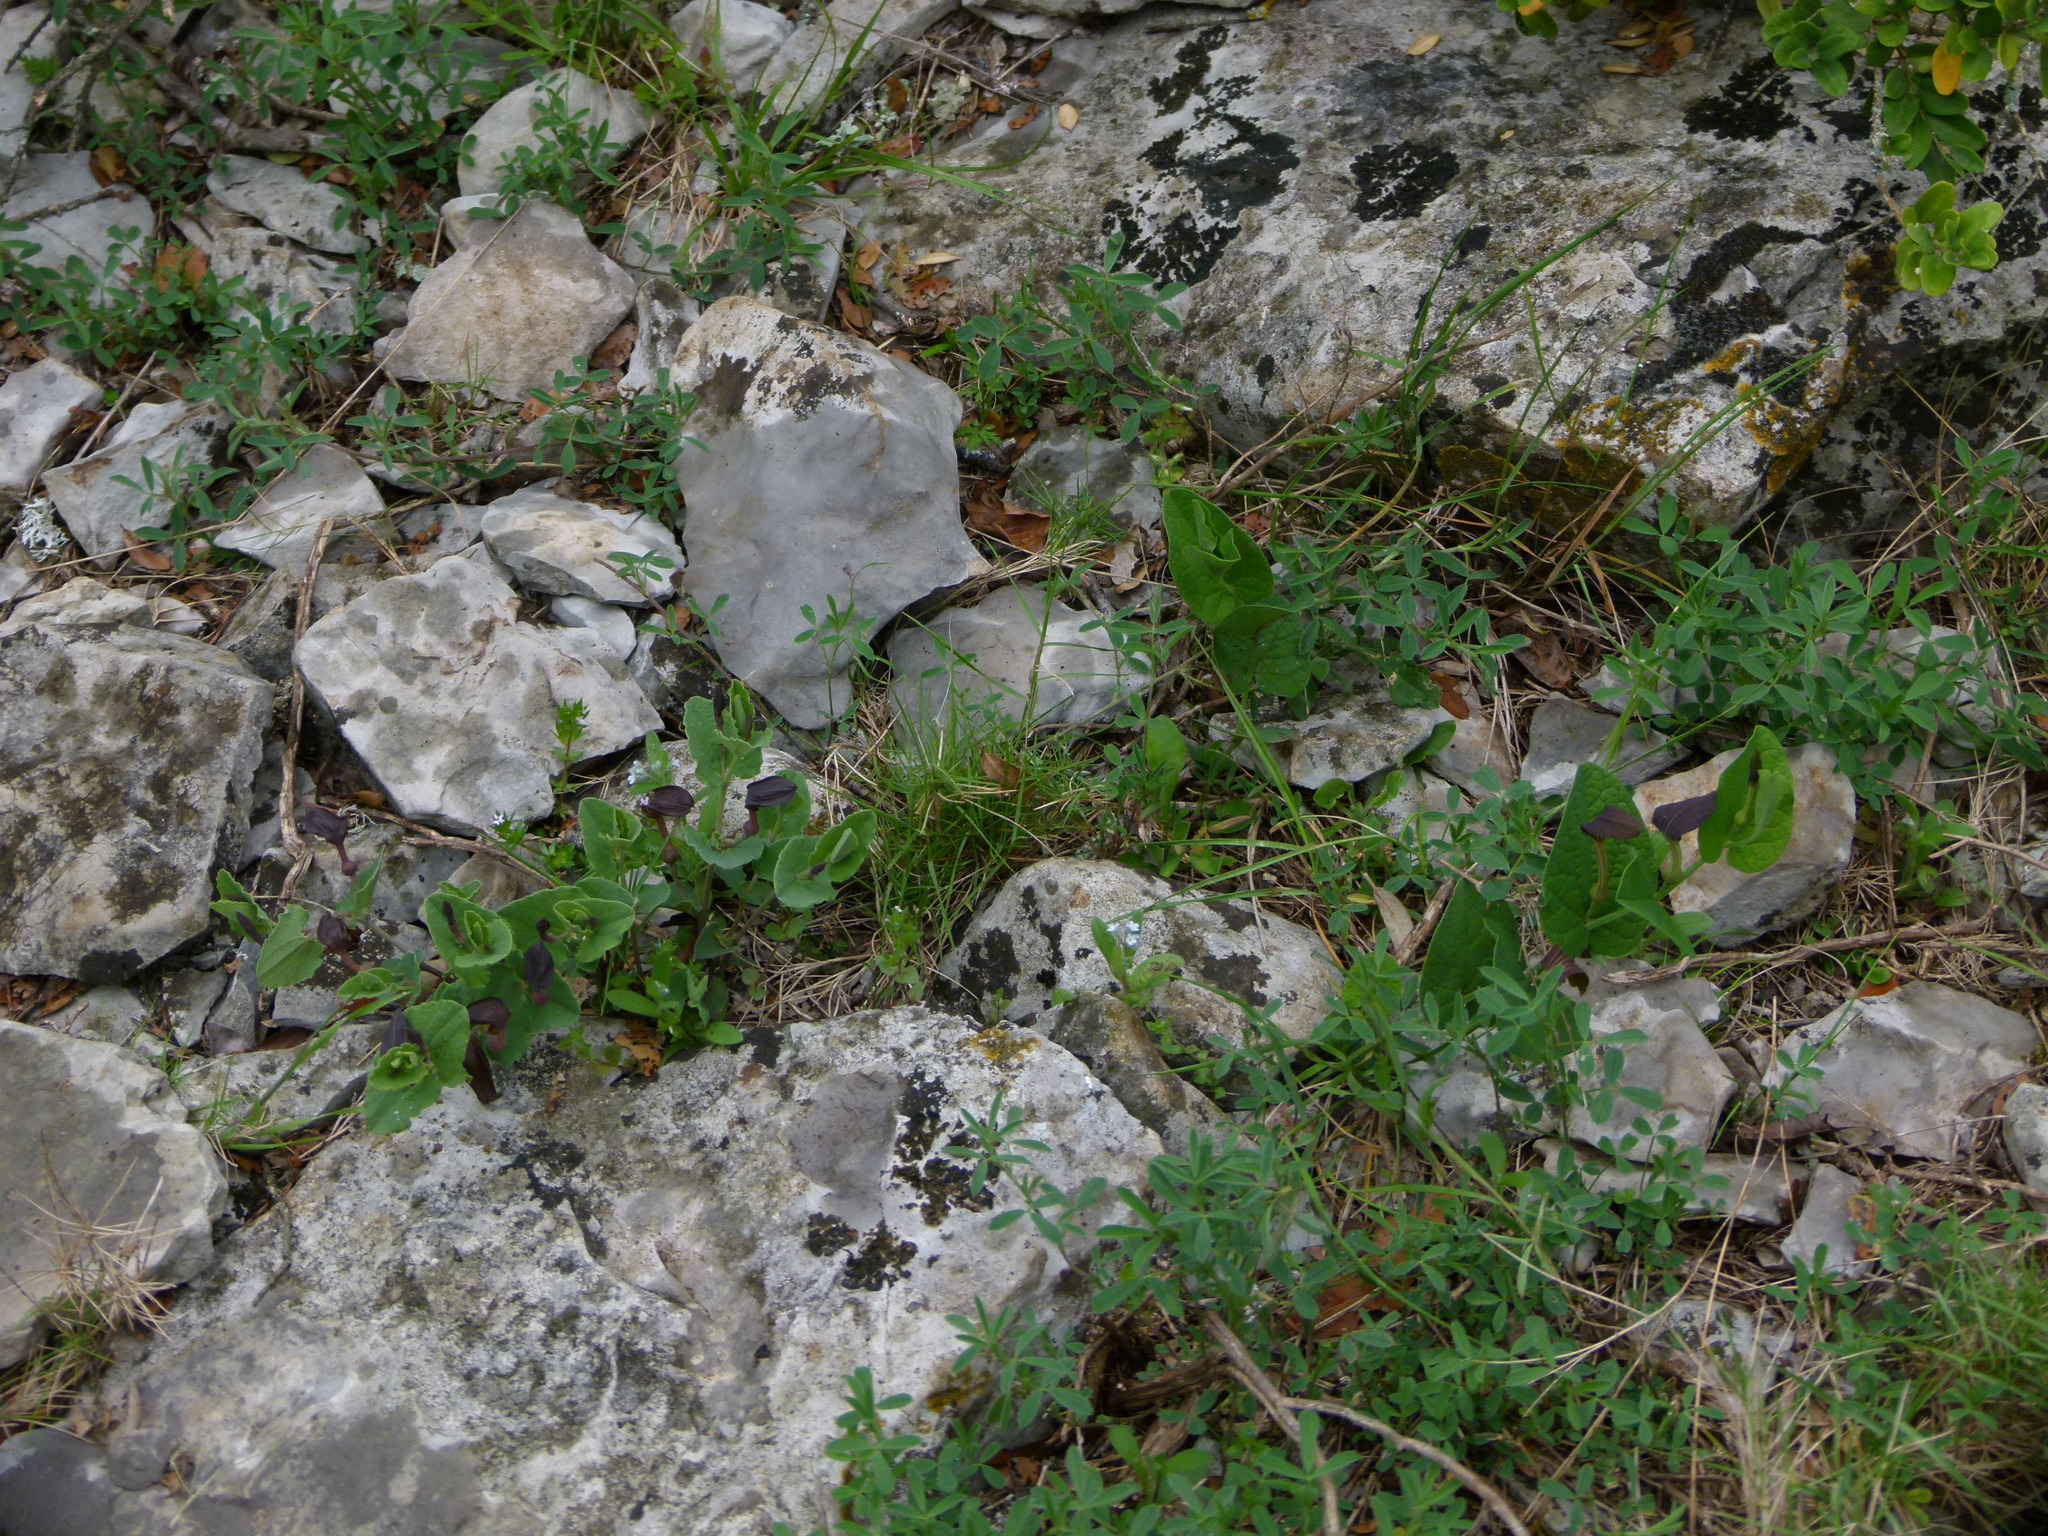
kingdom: Plantae
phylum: Tracheophyta
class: Magnoliopsida
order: Piperales
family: Aristolochiaceae
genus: Aristolochia
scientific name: Aristolochia pistolochia
